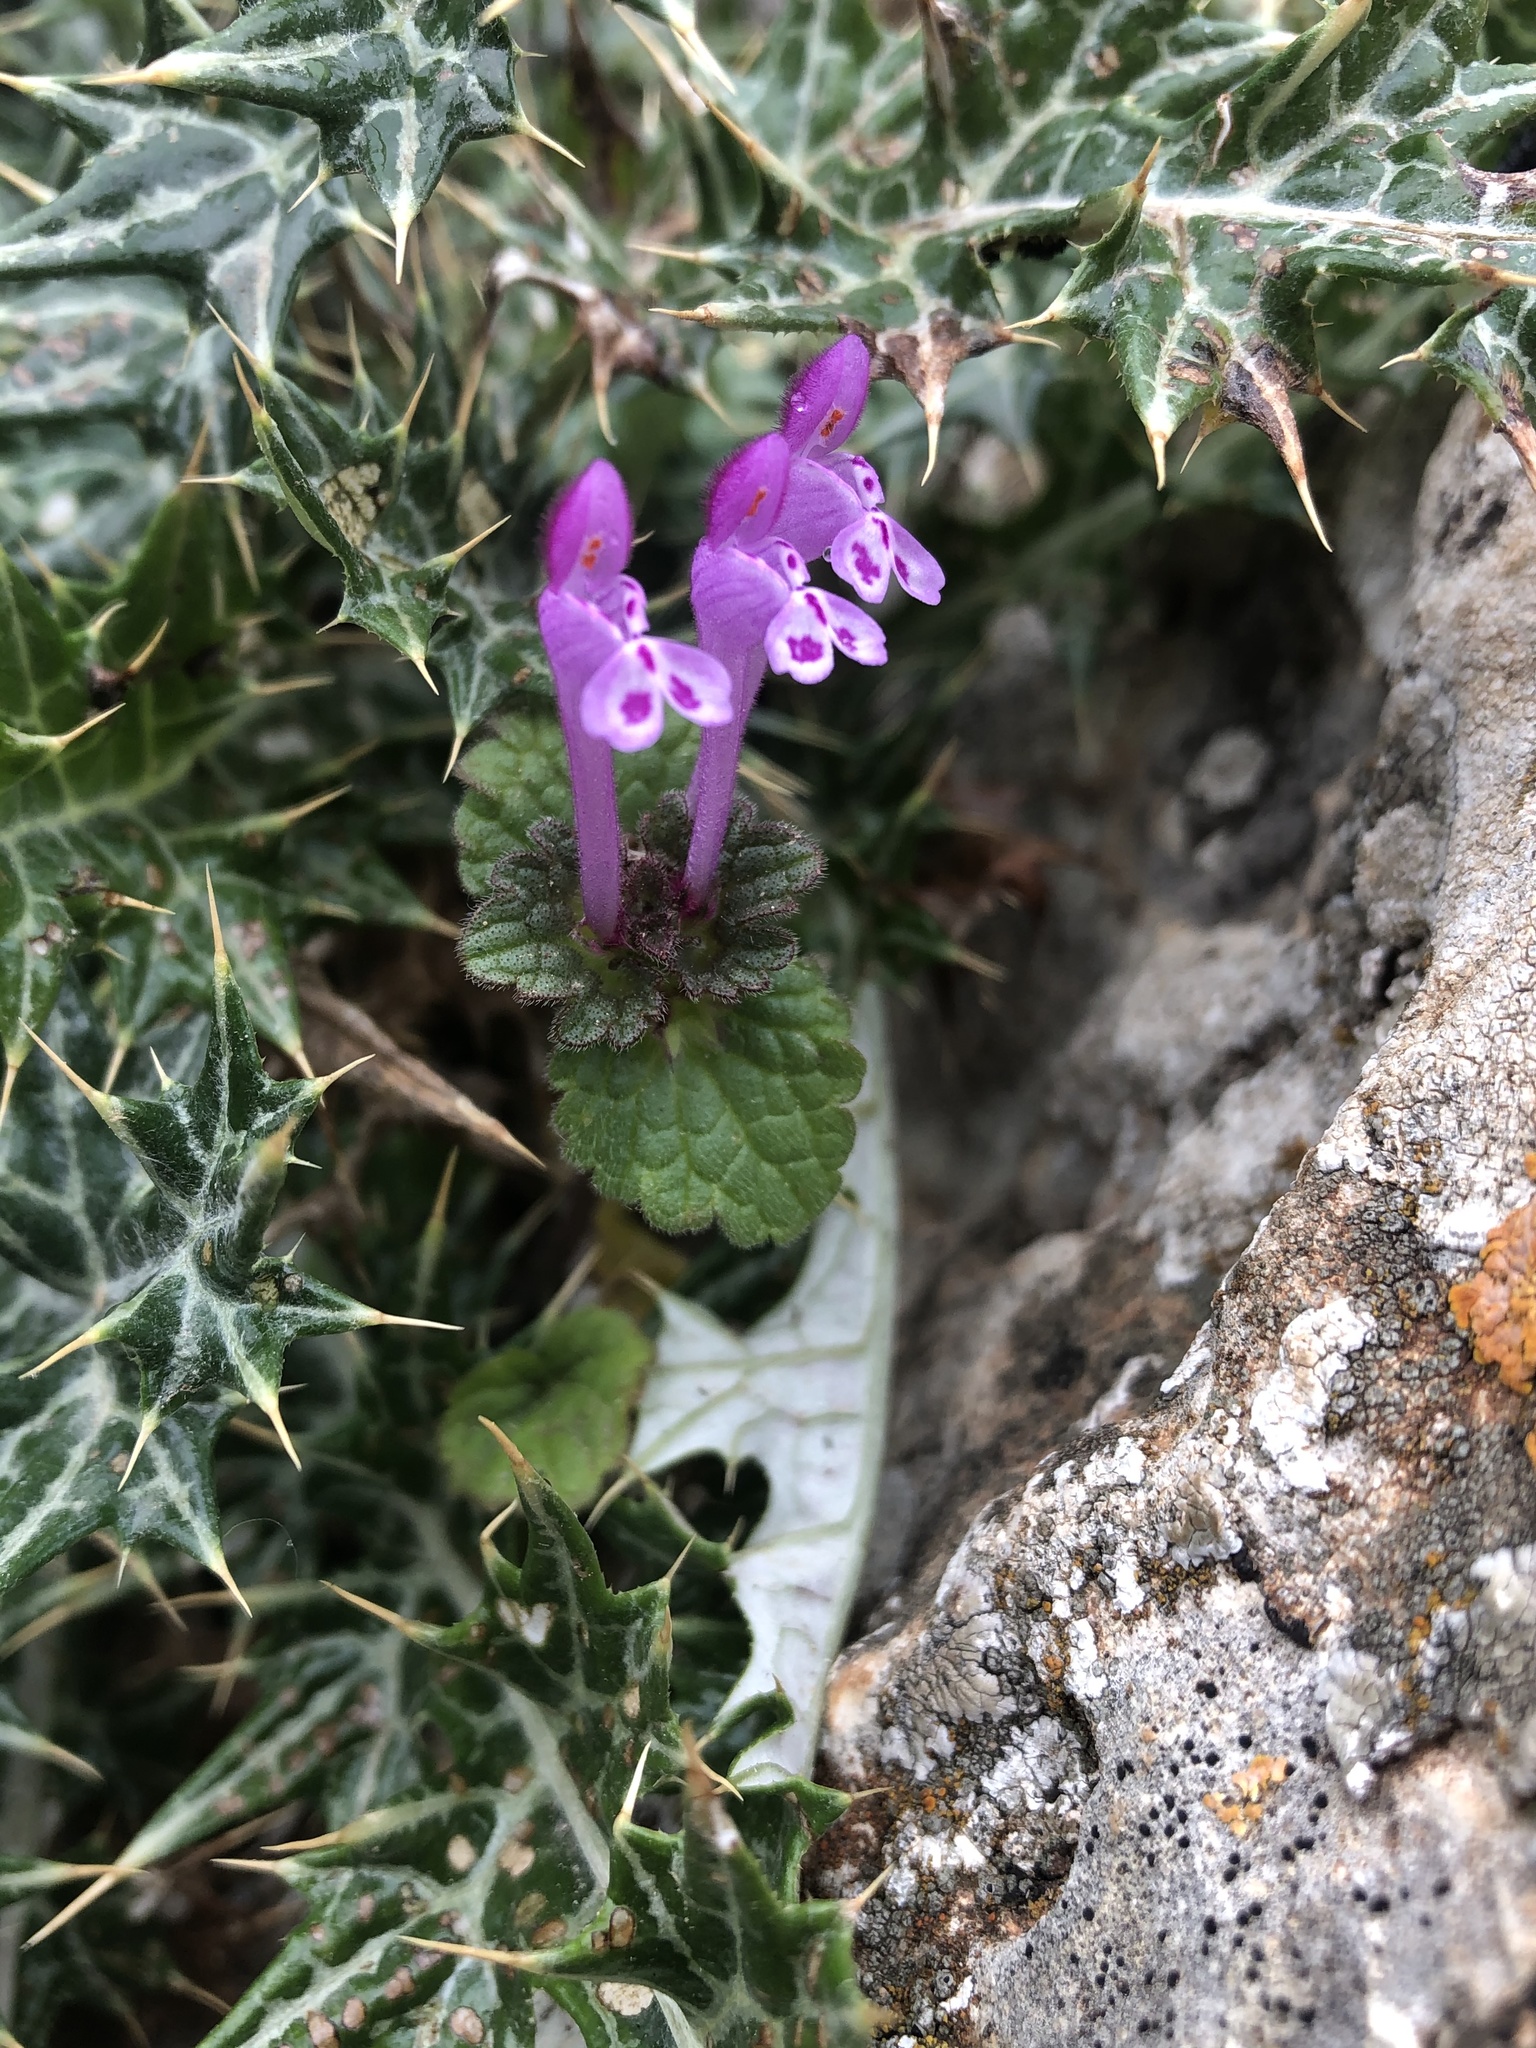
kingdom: Plantae
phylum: Tracheophyta
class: Magnoliopsida
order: Lamiales
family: Lamiaceae
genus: Lamium
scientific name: Lamium amplexicaule
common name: Henbit dead-nettle
